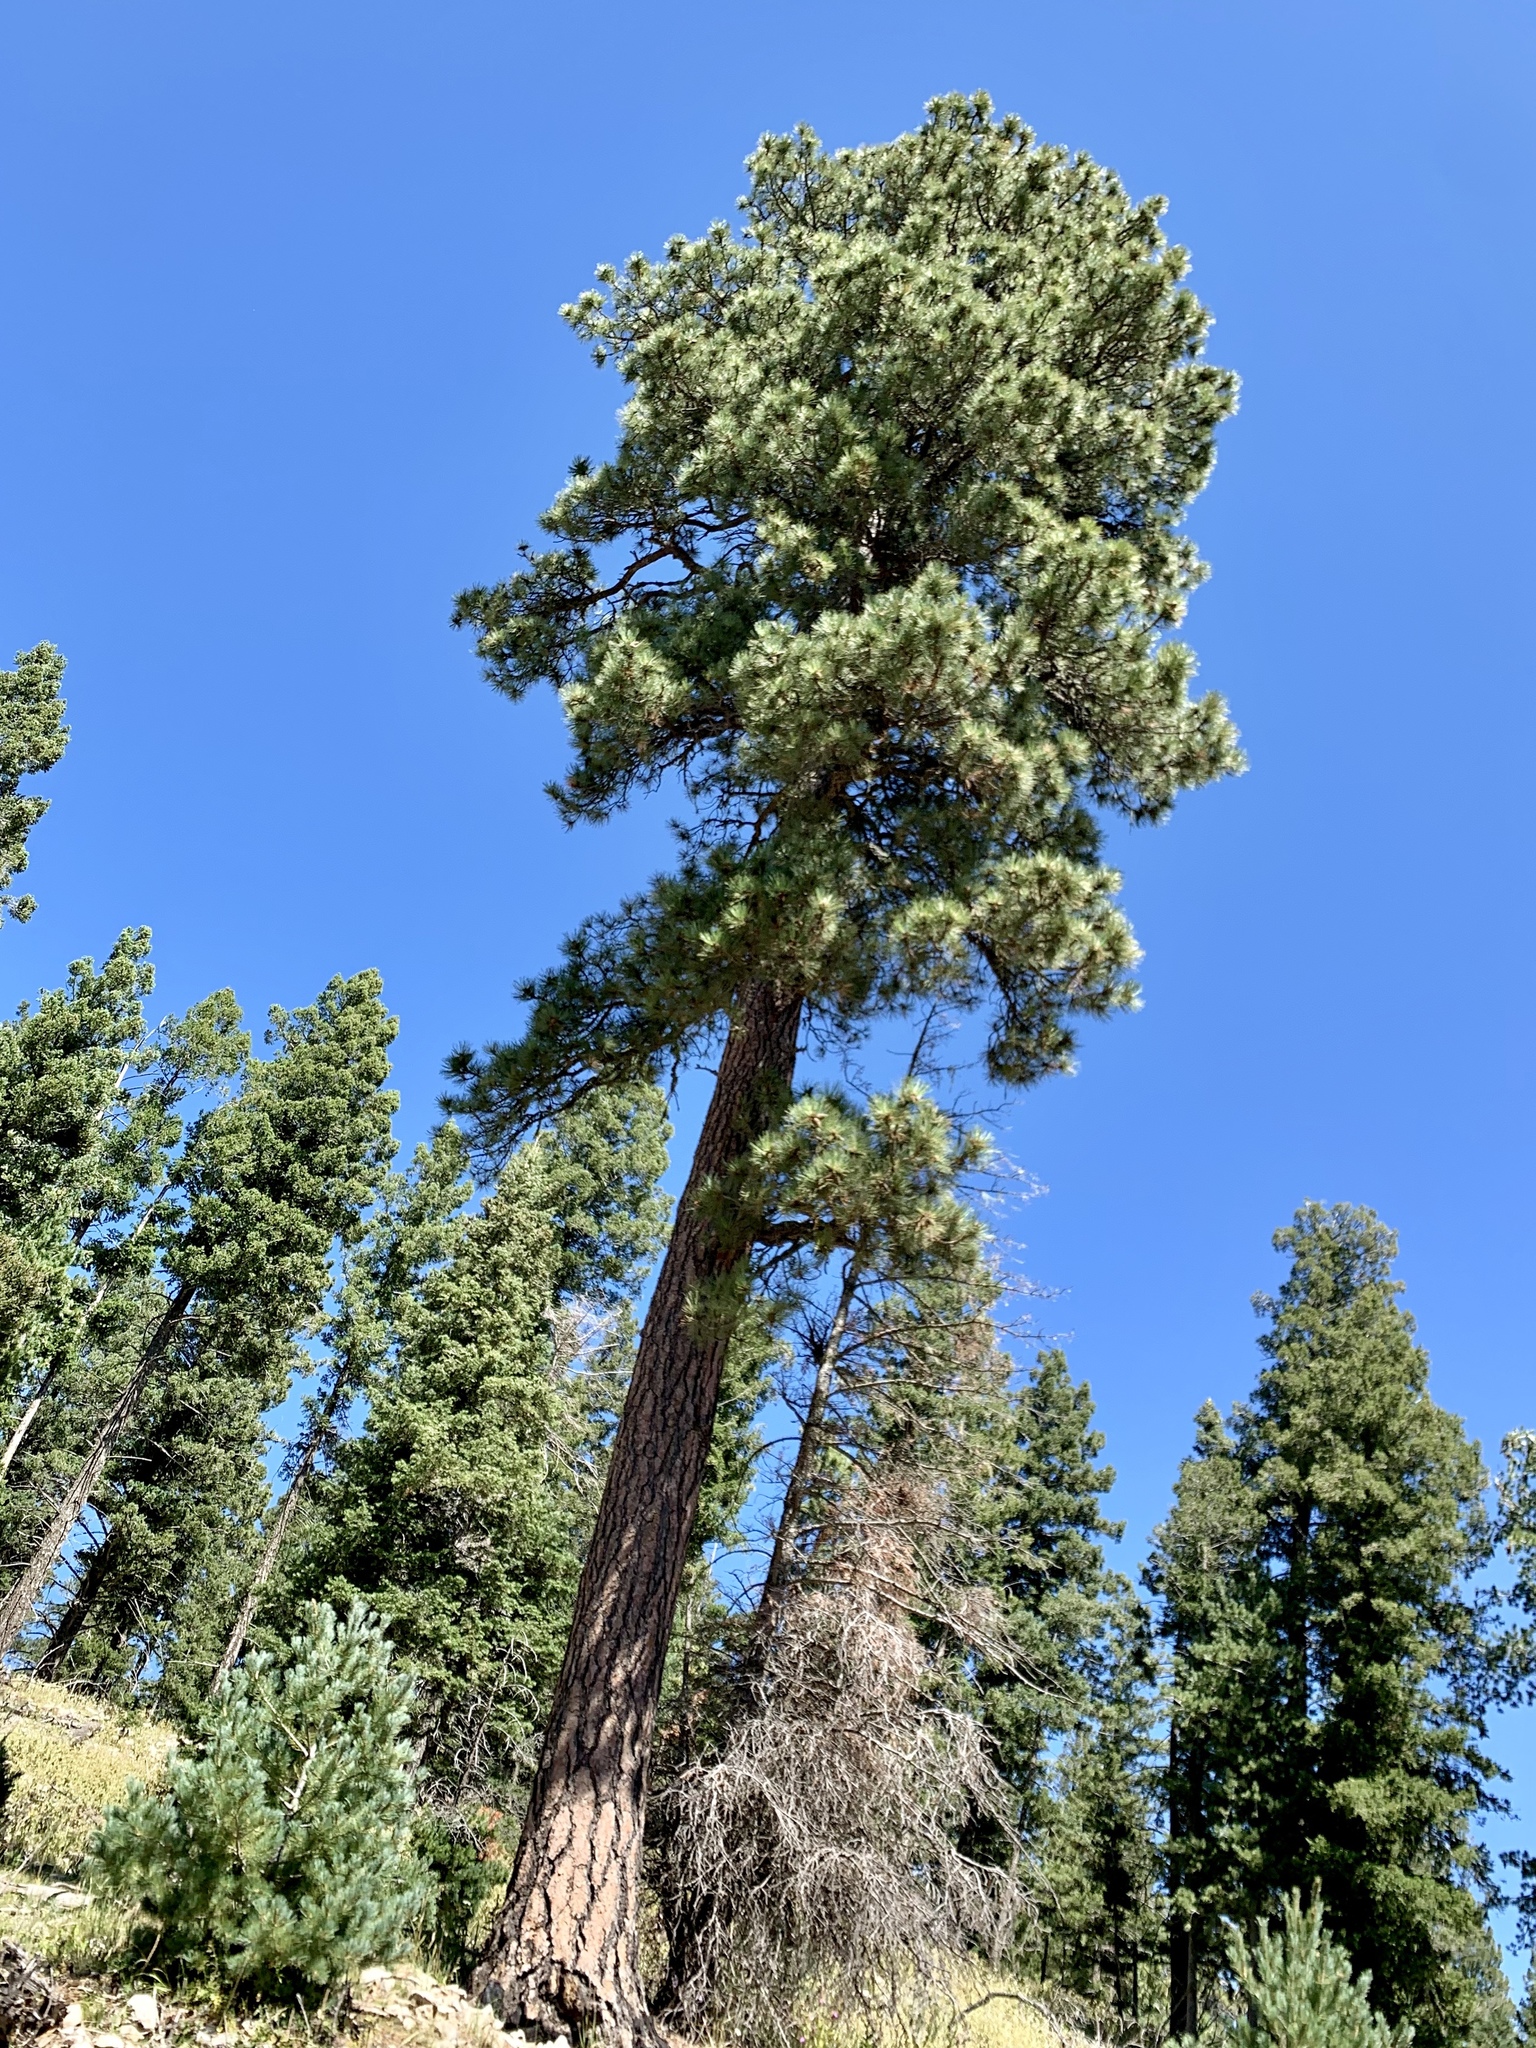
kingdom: Plantae
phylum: Tracheophyta
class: Pinopsida
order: Pinales
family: Pinaceae
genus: Pinus
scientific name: Pinus ponderosa
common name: Western yellow-pine
